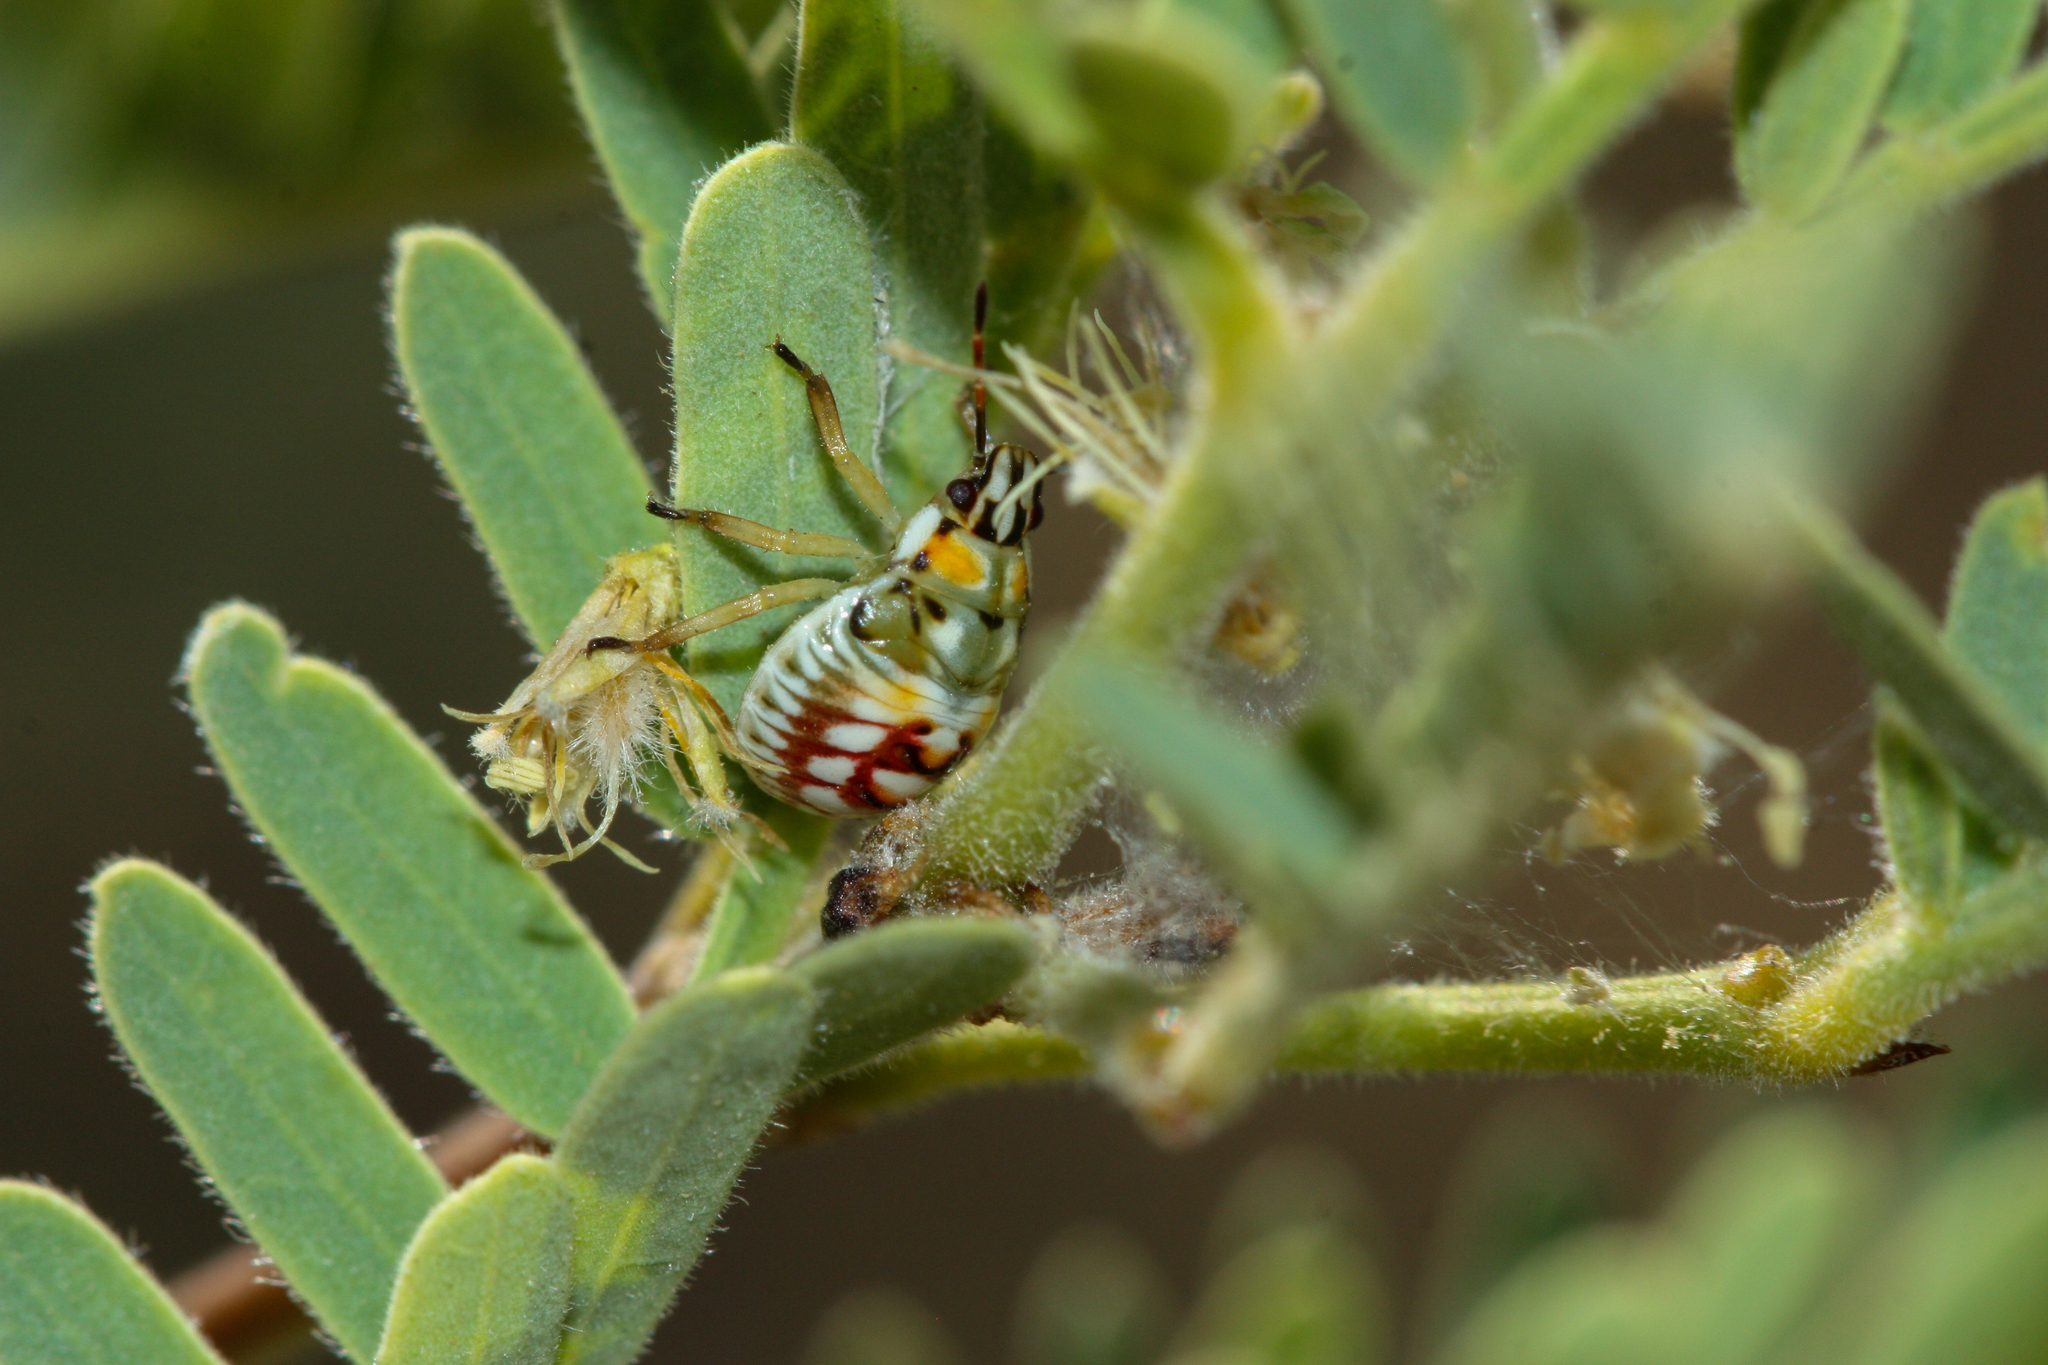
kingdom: Animalia
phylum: Arthropoda
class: Insecta
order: Hemiptera
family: Pentatomidae
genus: Tylospilus
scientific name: Tylospilus acutissimus
